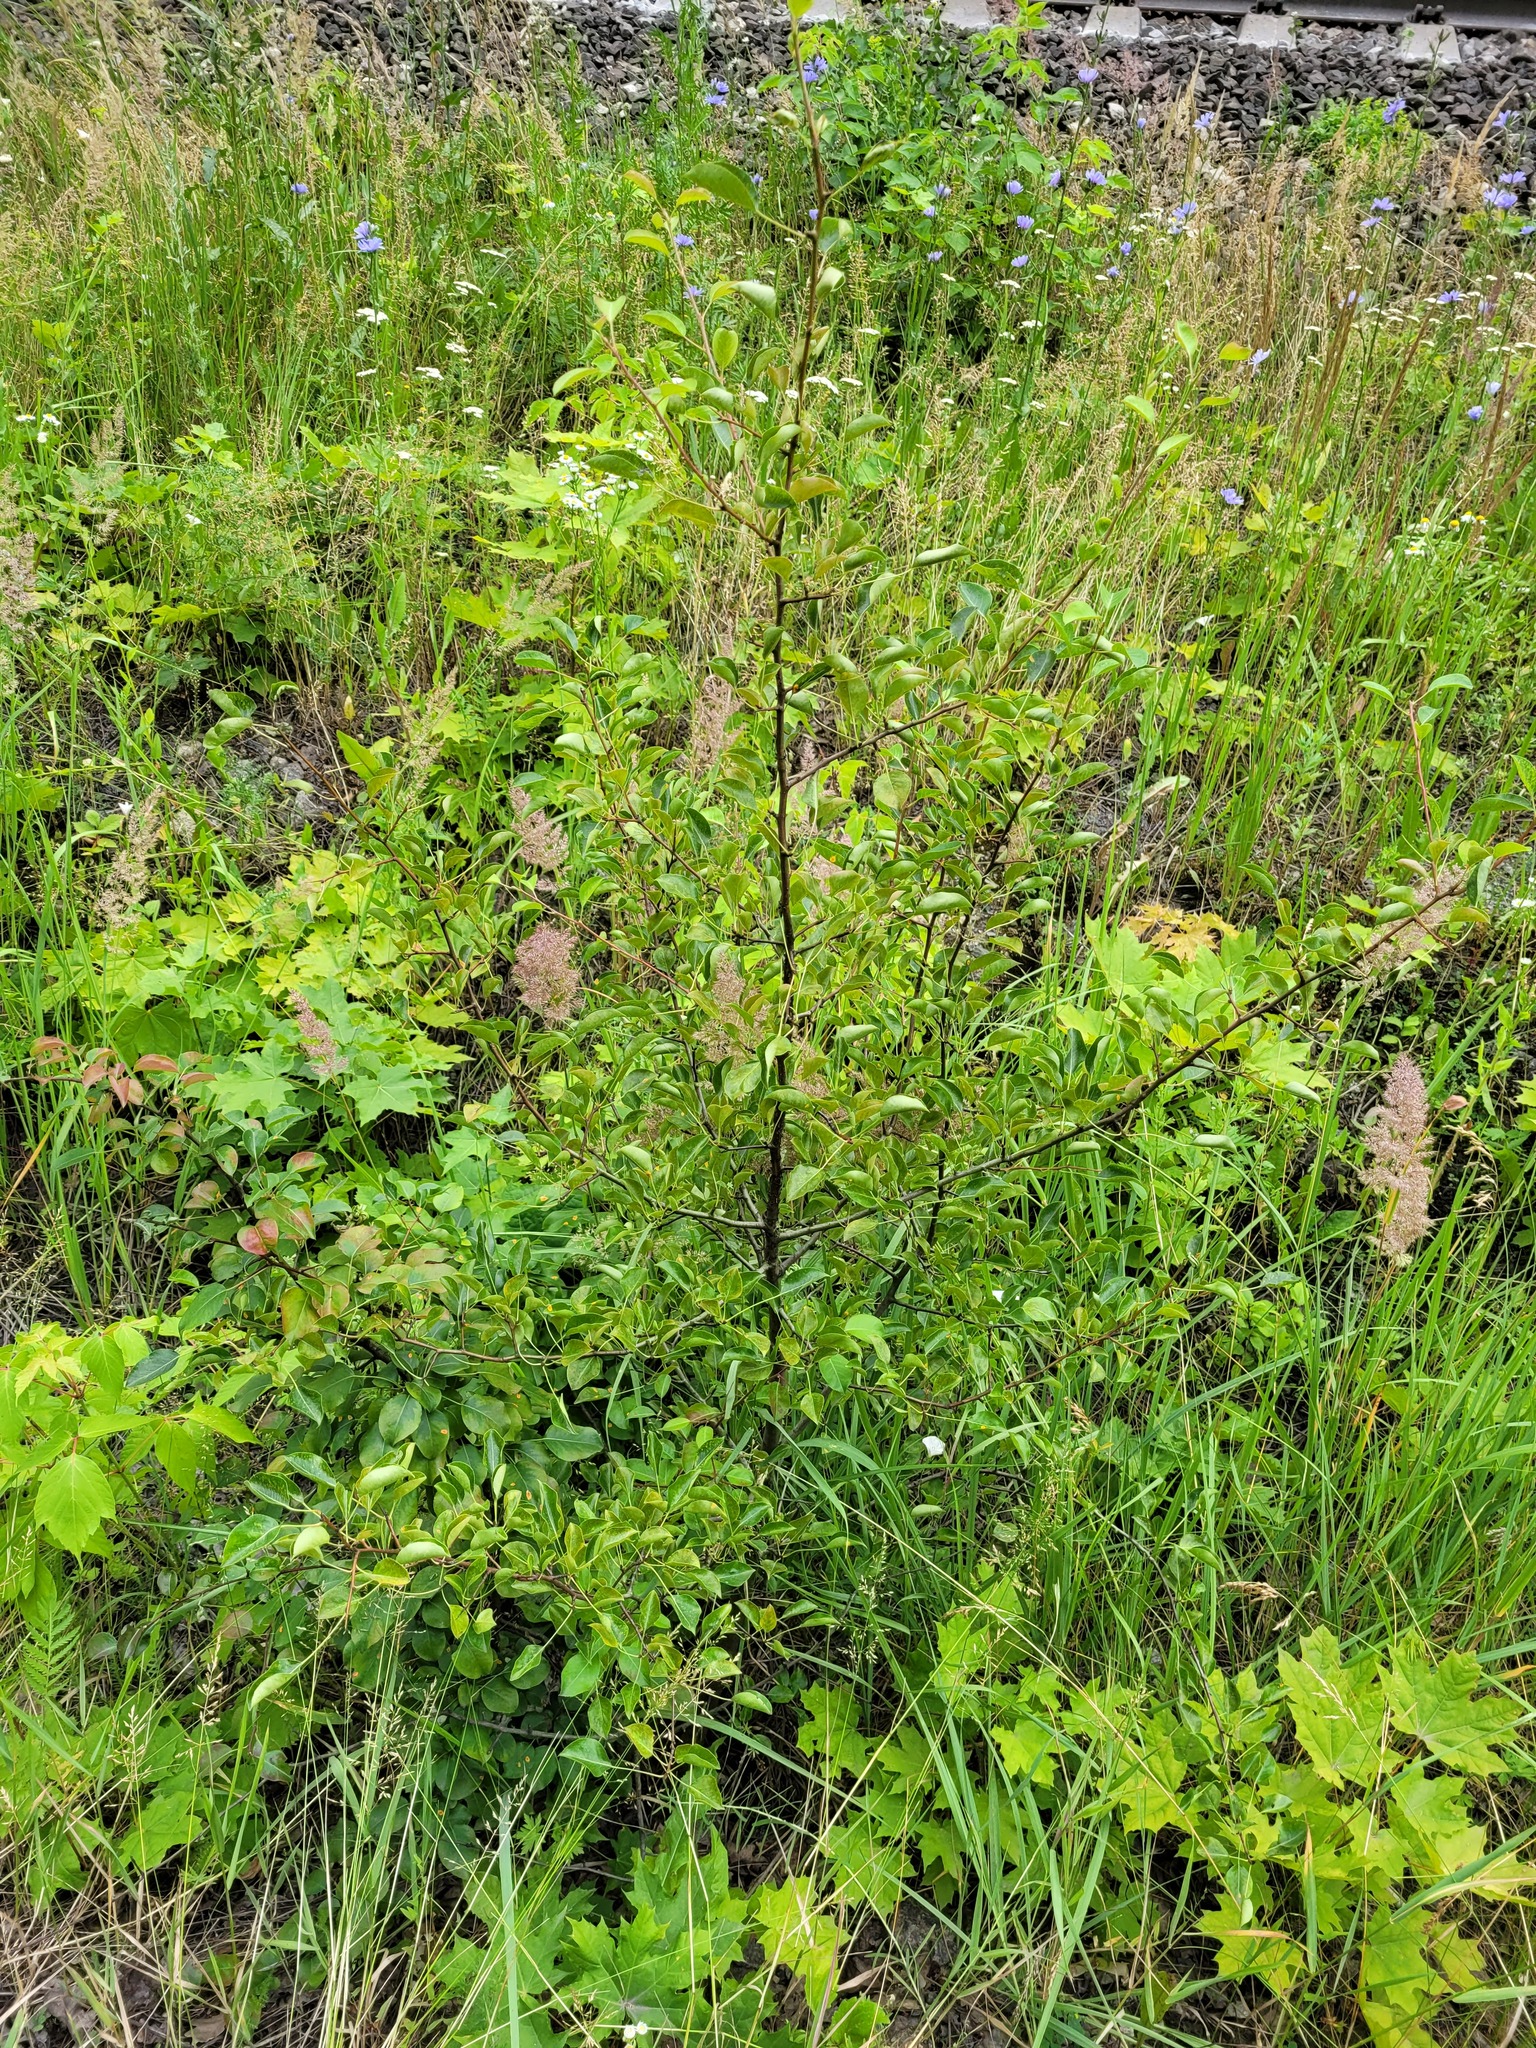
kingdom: Plantae
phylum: Tracheophyta
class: Magnoliopsida
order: Rosales
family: Rosaceae
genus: Pyrus
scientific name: Pyrus communis
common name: Pear
